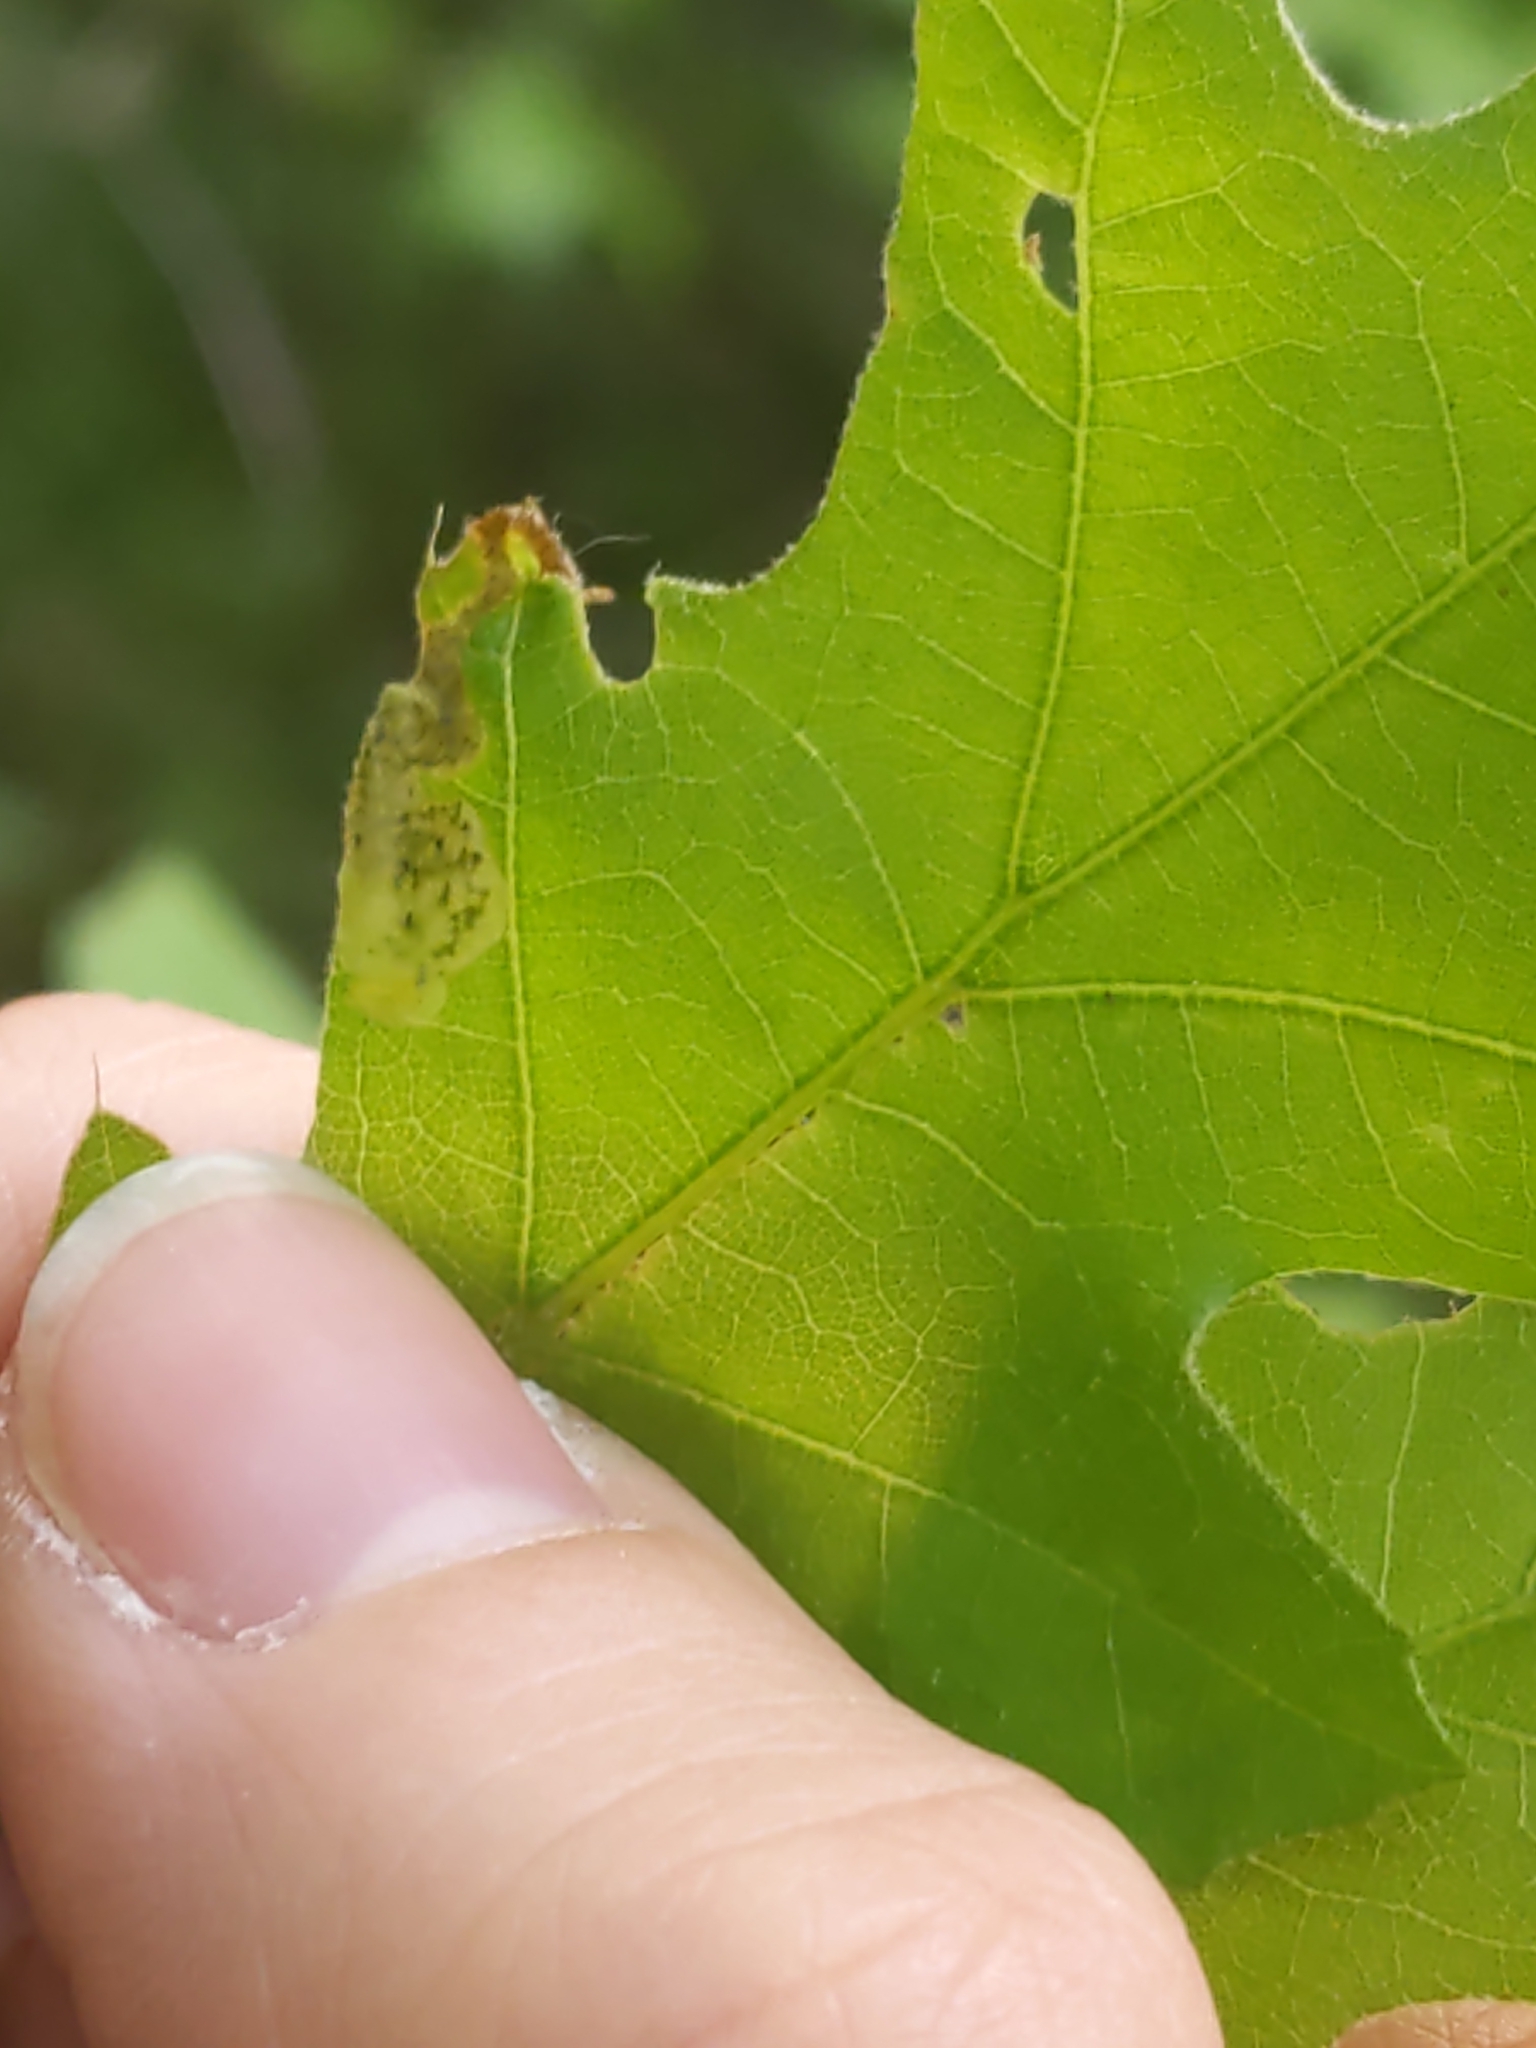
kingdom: Animalia
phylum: Arthropoda
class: Insecta
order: Diptera
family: Agromyzidae
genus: Japanagromyza
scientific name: Japanagromyza viridula
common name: Oak shothole leafminer
